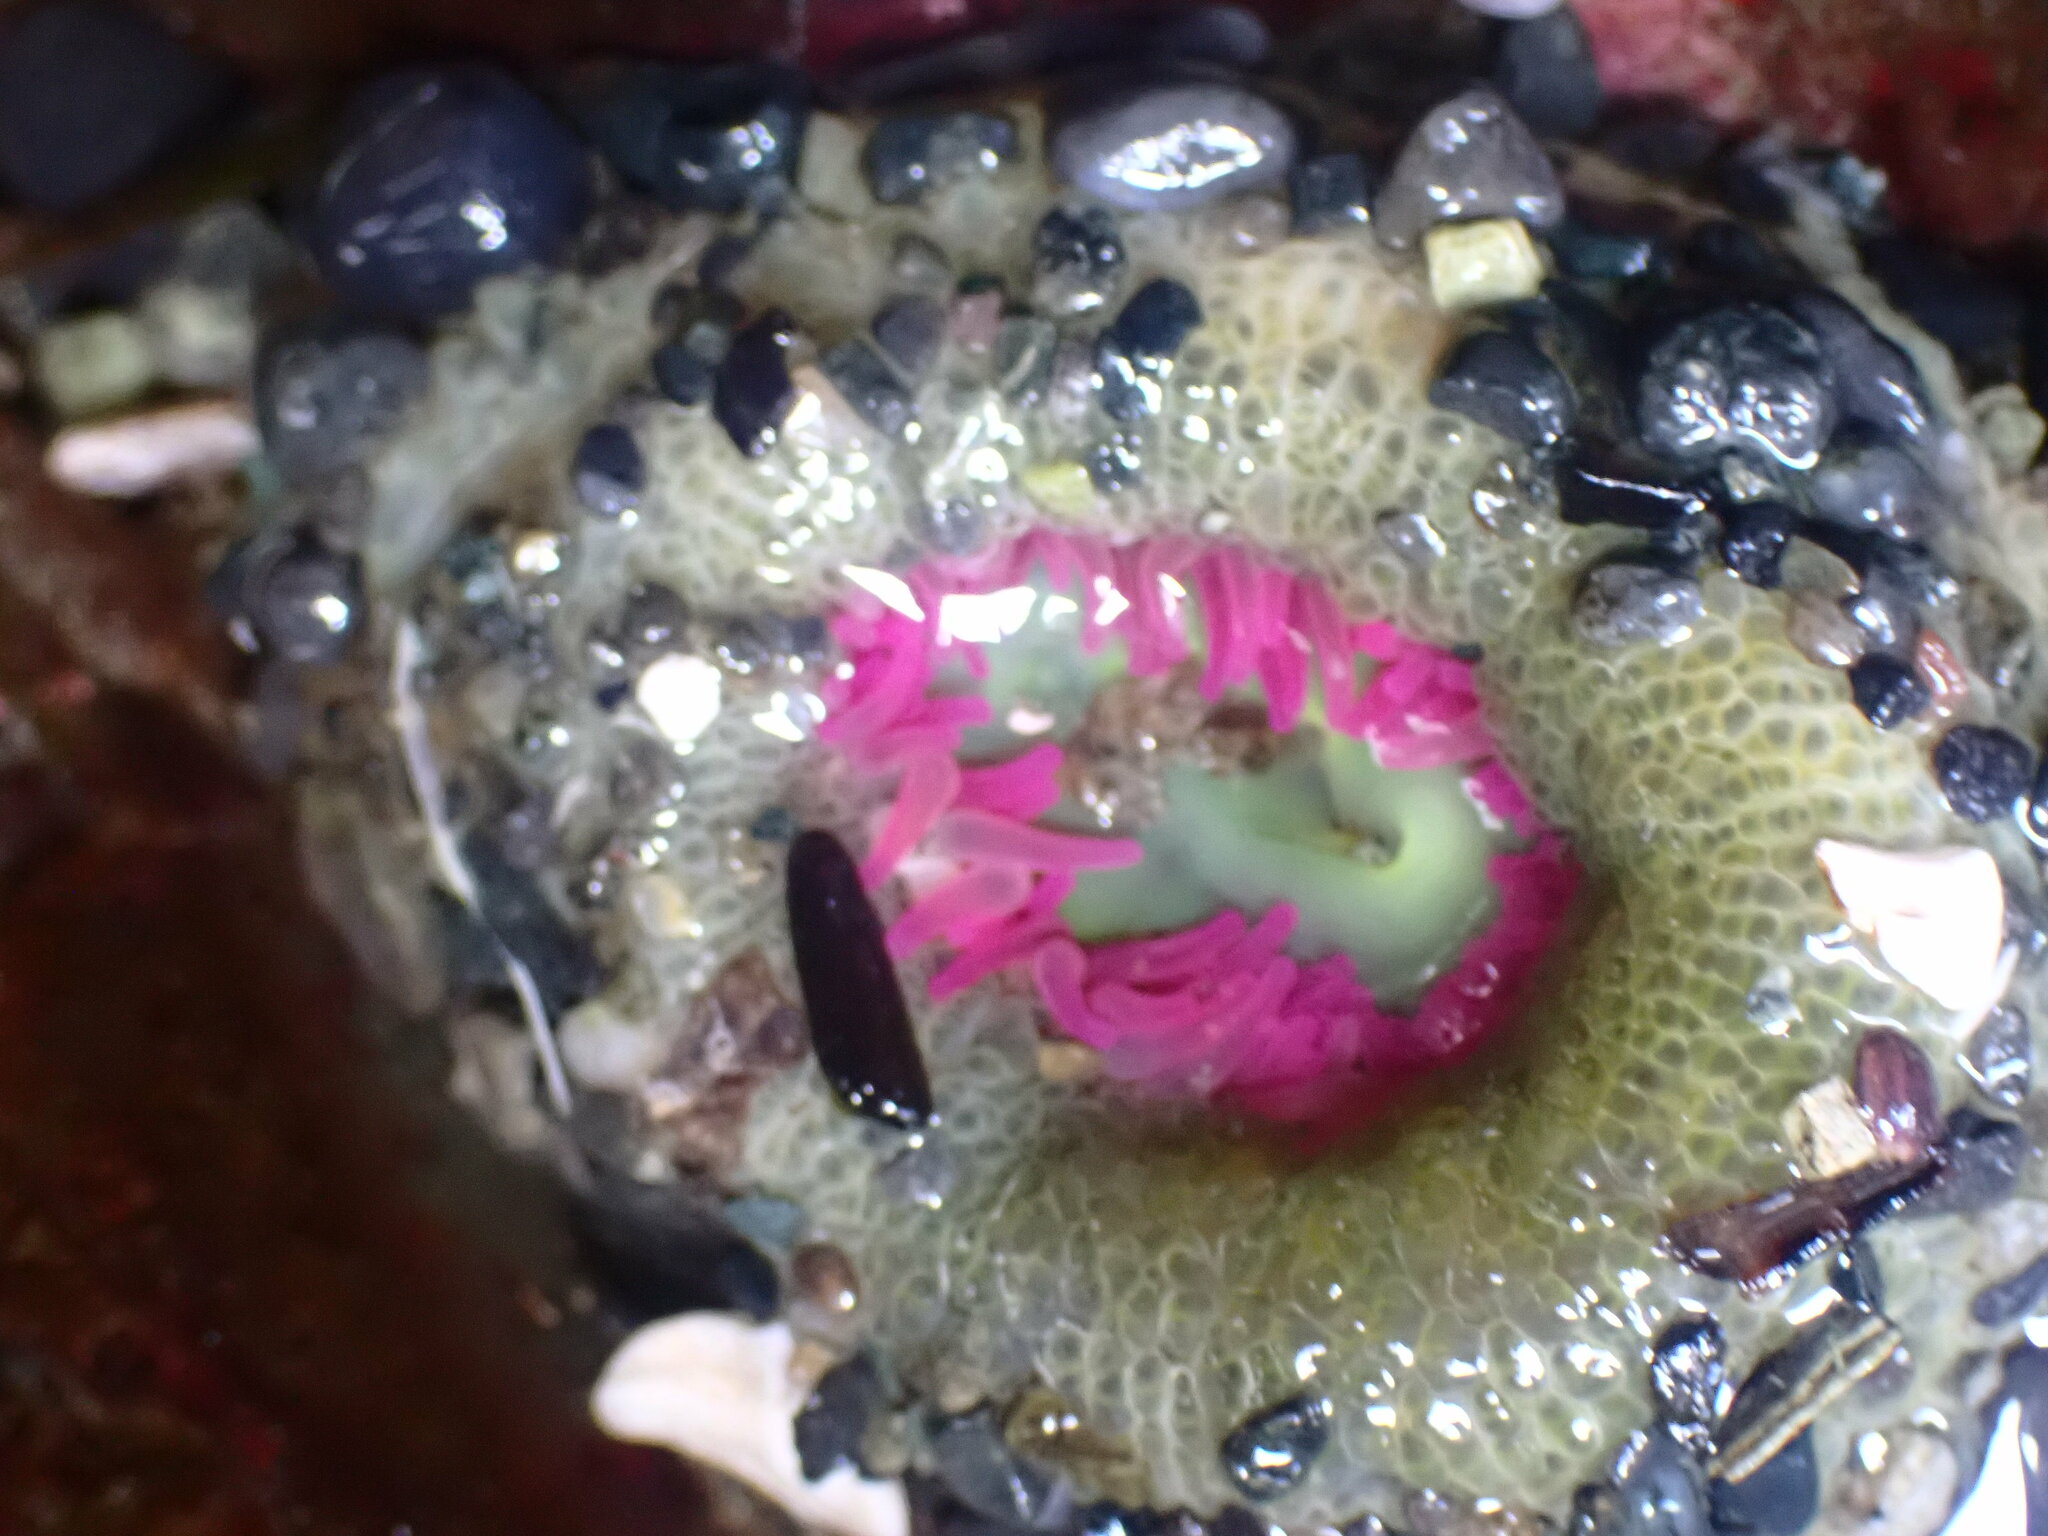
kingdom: Animalia
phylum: Cnidaria
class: Anthozoa
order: Actiniaria
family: Actiniidae
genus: Anthopleura
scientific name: Anthopleura elegantissima
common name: Clonal anemone
